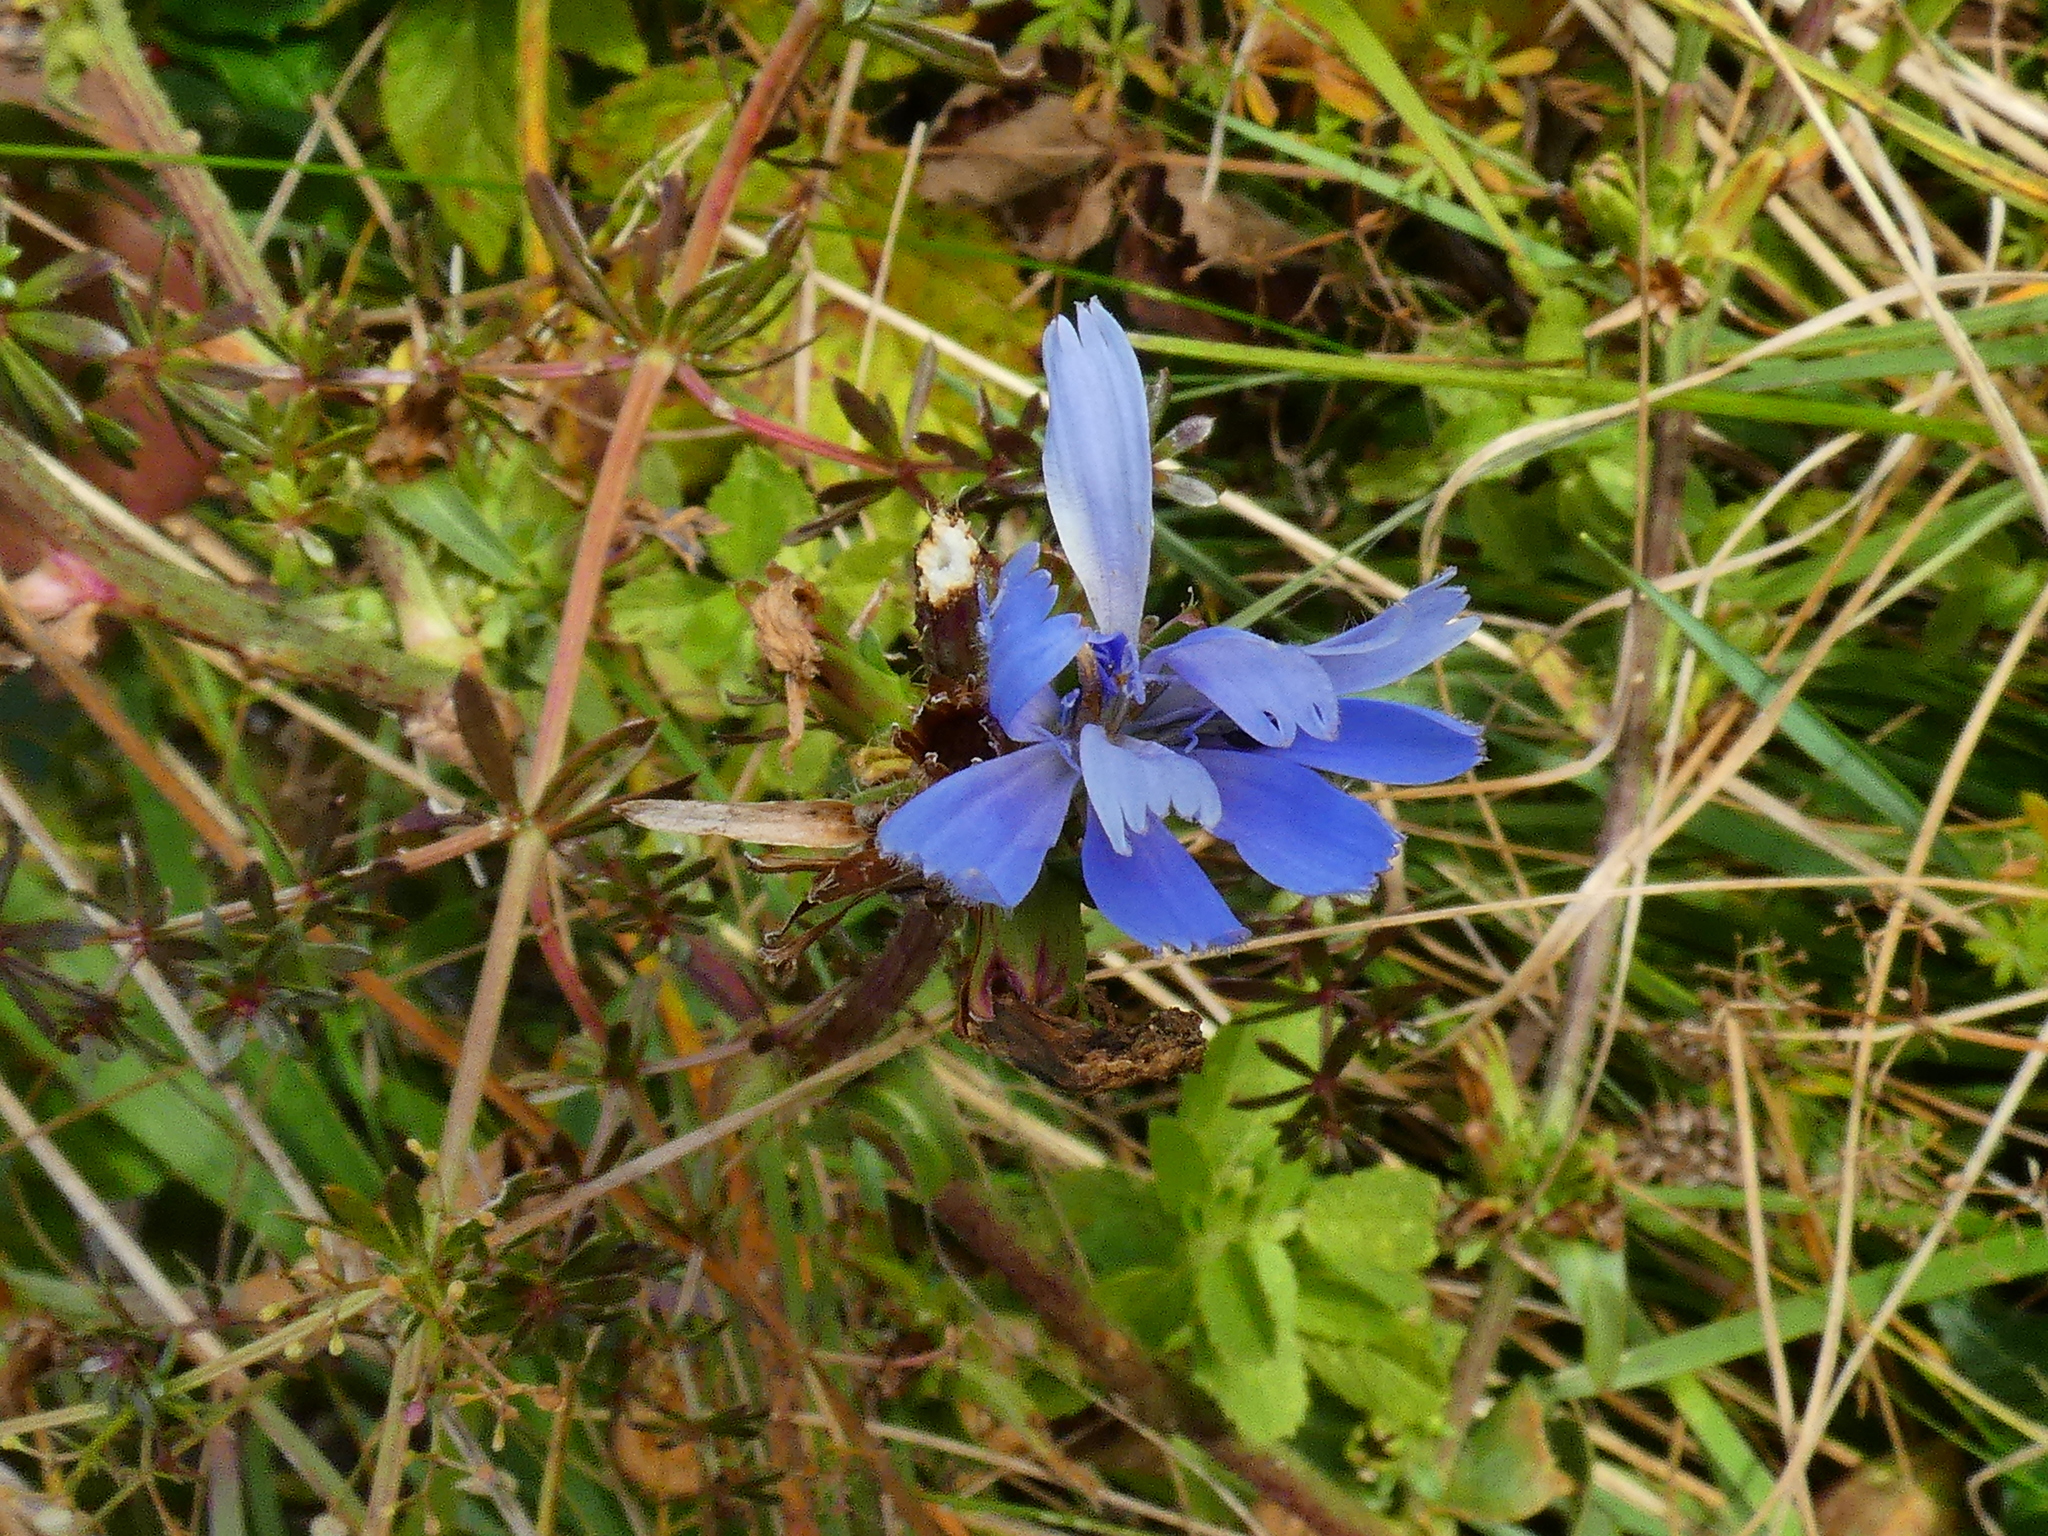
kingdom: Plantae
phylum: Tracheophyta
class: Magnoliopsida
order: Asterales
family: Asteraceae
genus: Cichorium
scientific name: Cichorium intybus
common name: Chicory
